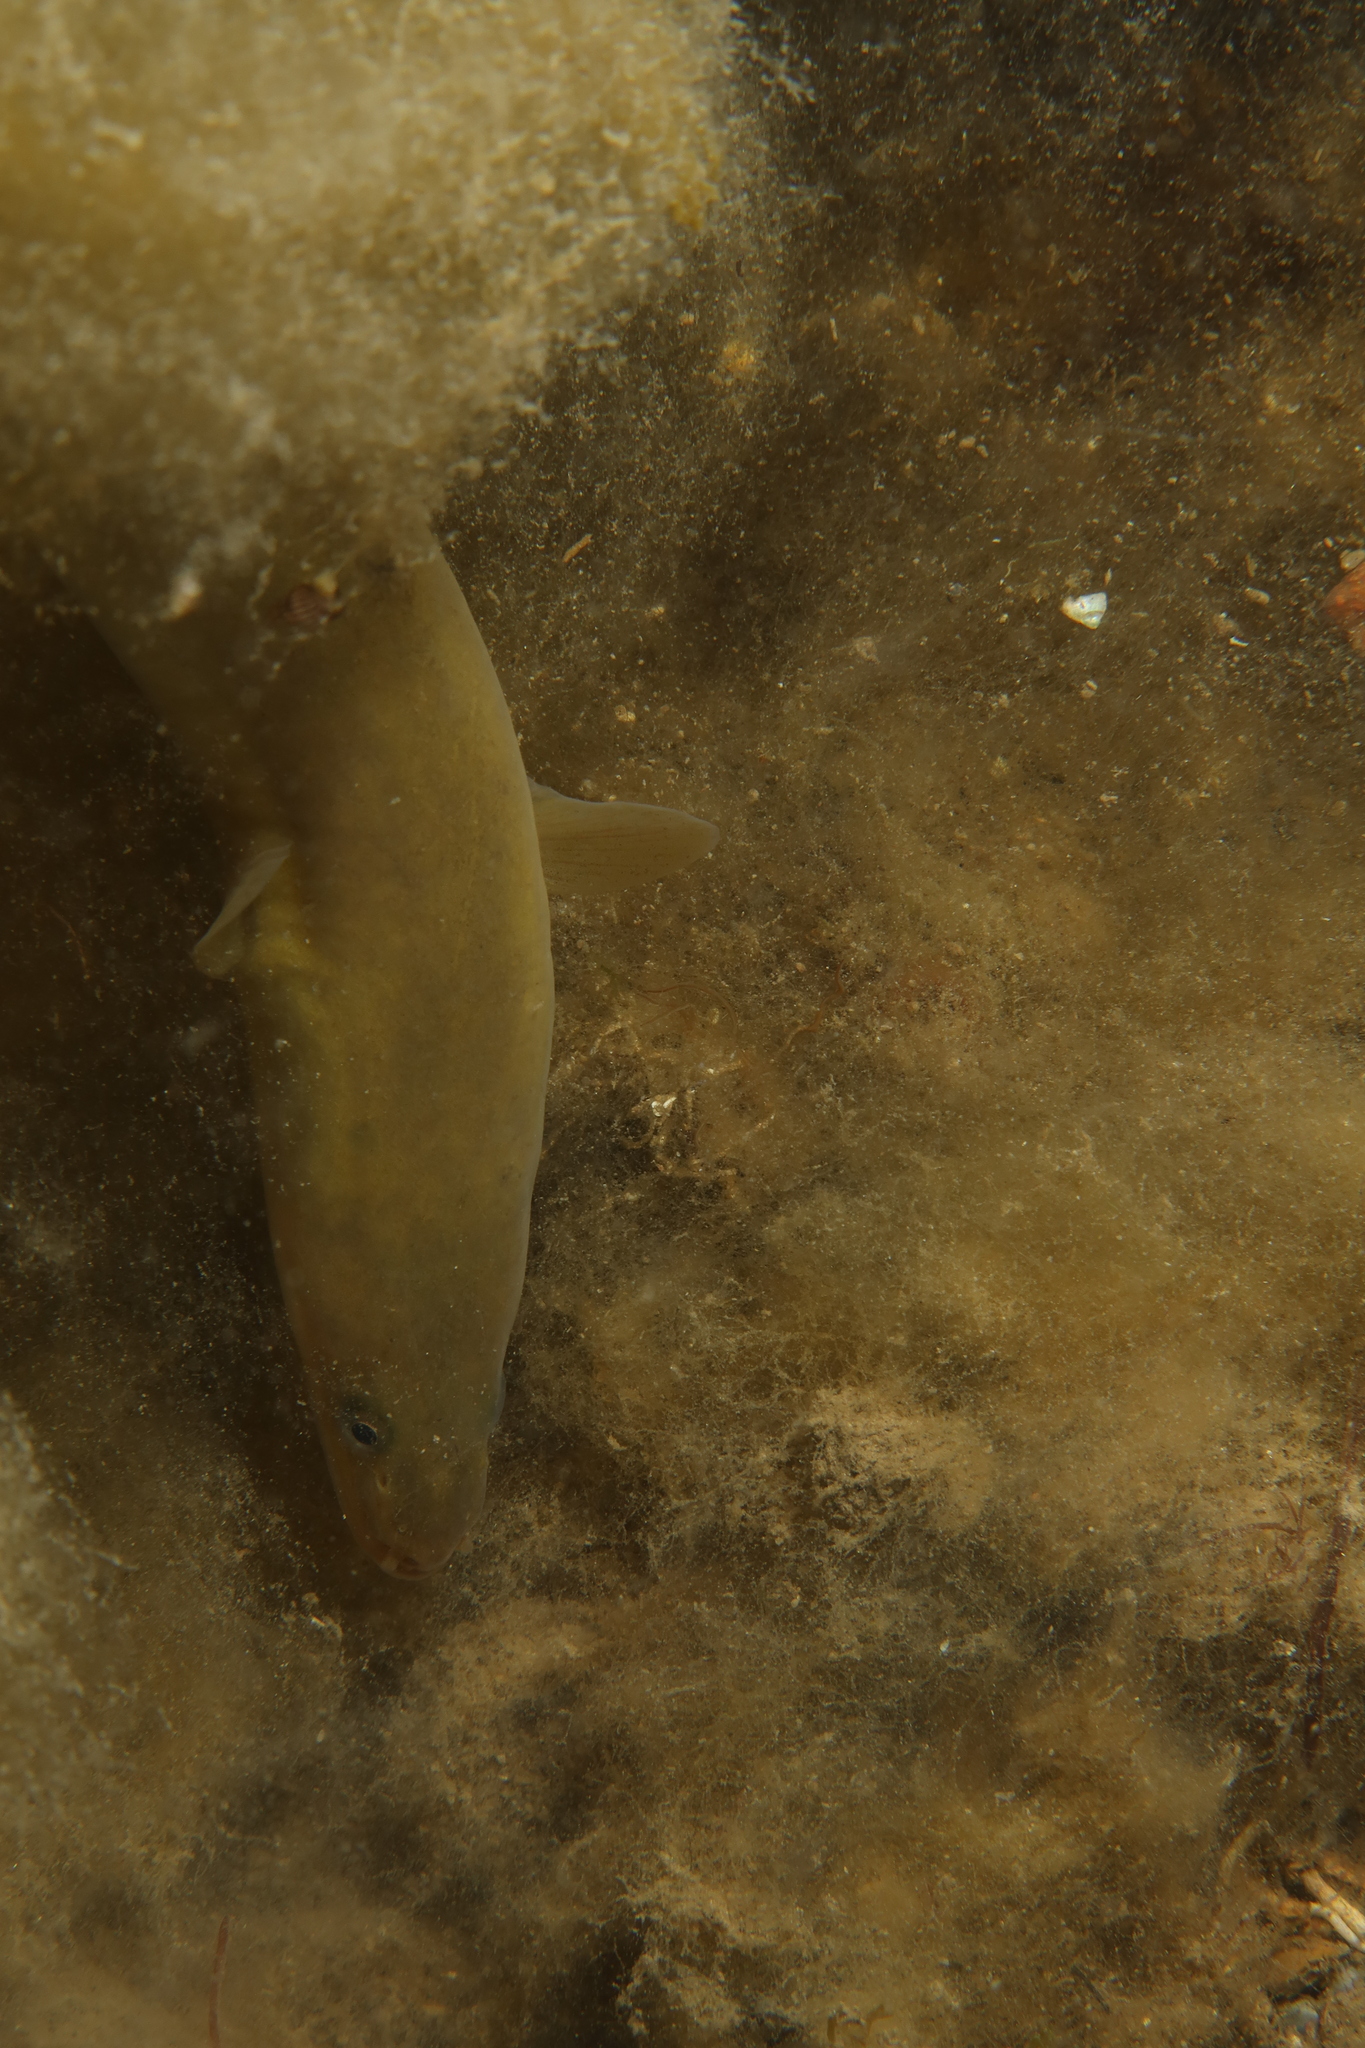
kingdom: Animalia
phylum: Chordata
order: Anguilliformes
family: Anguillidae
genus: Anguilla
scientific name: Anguilla anguilla
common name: European eel
